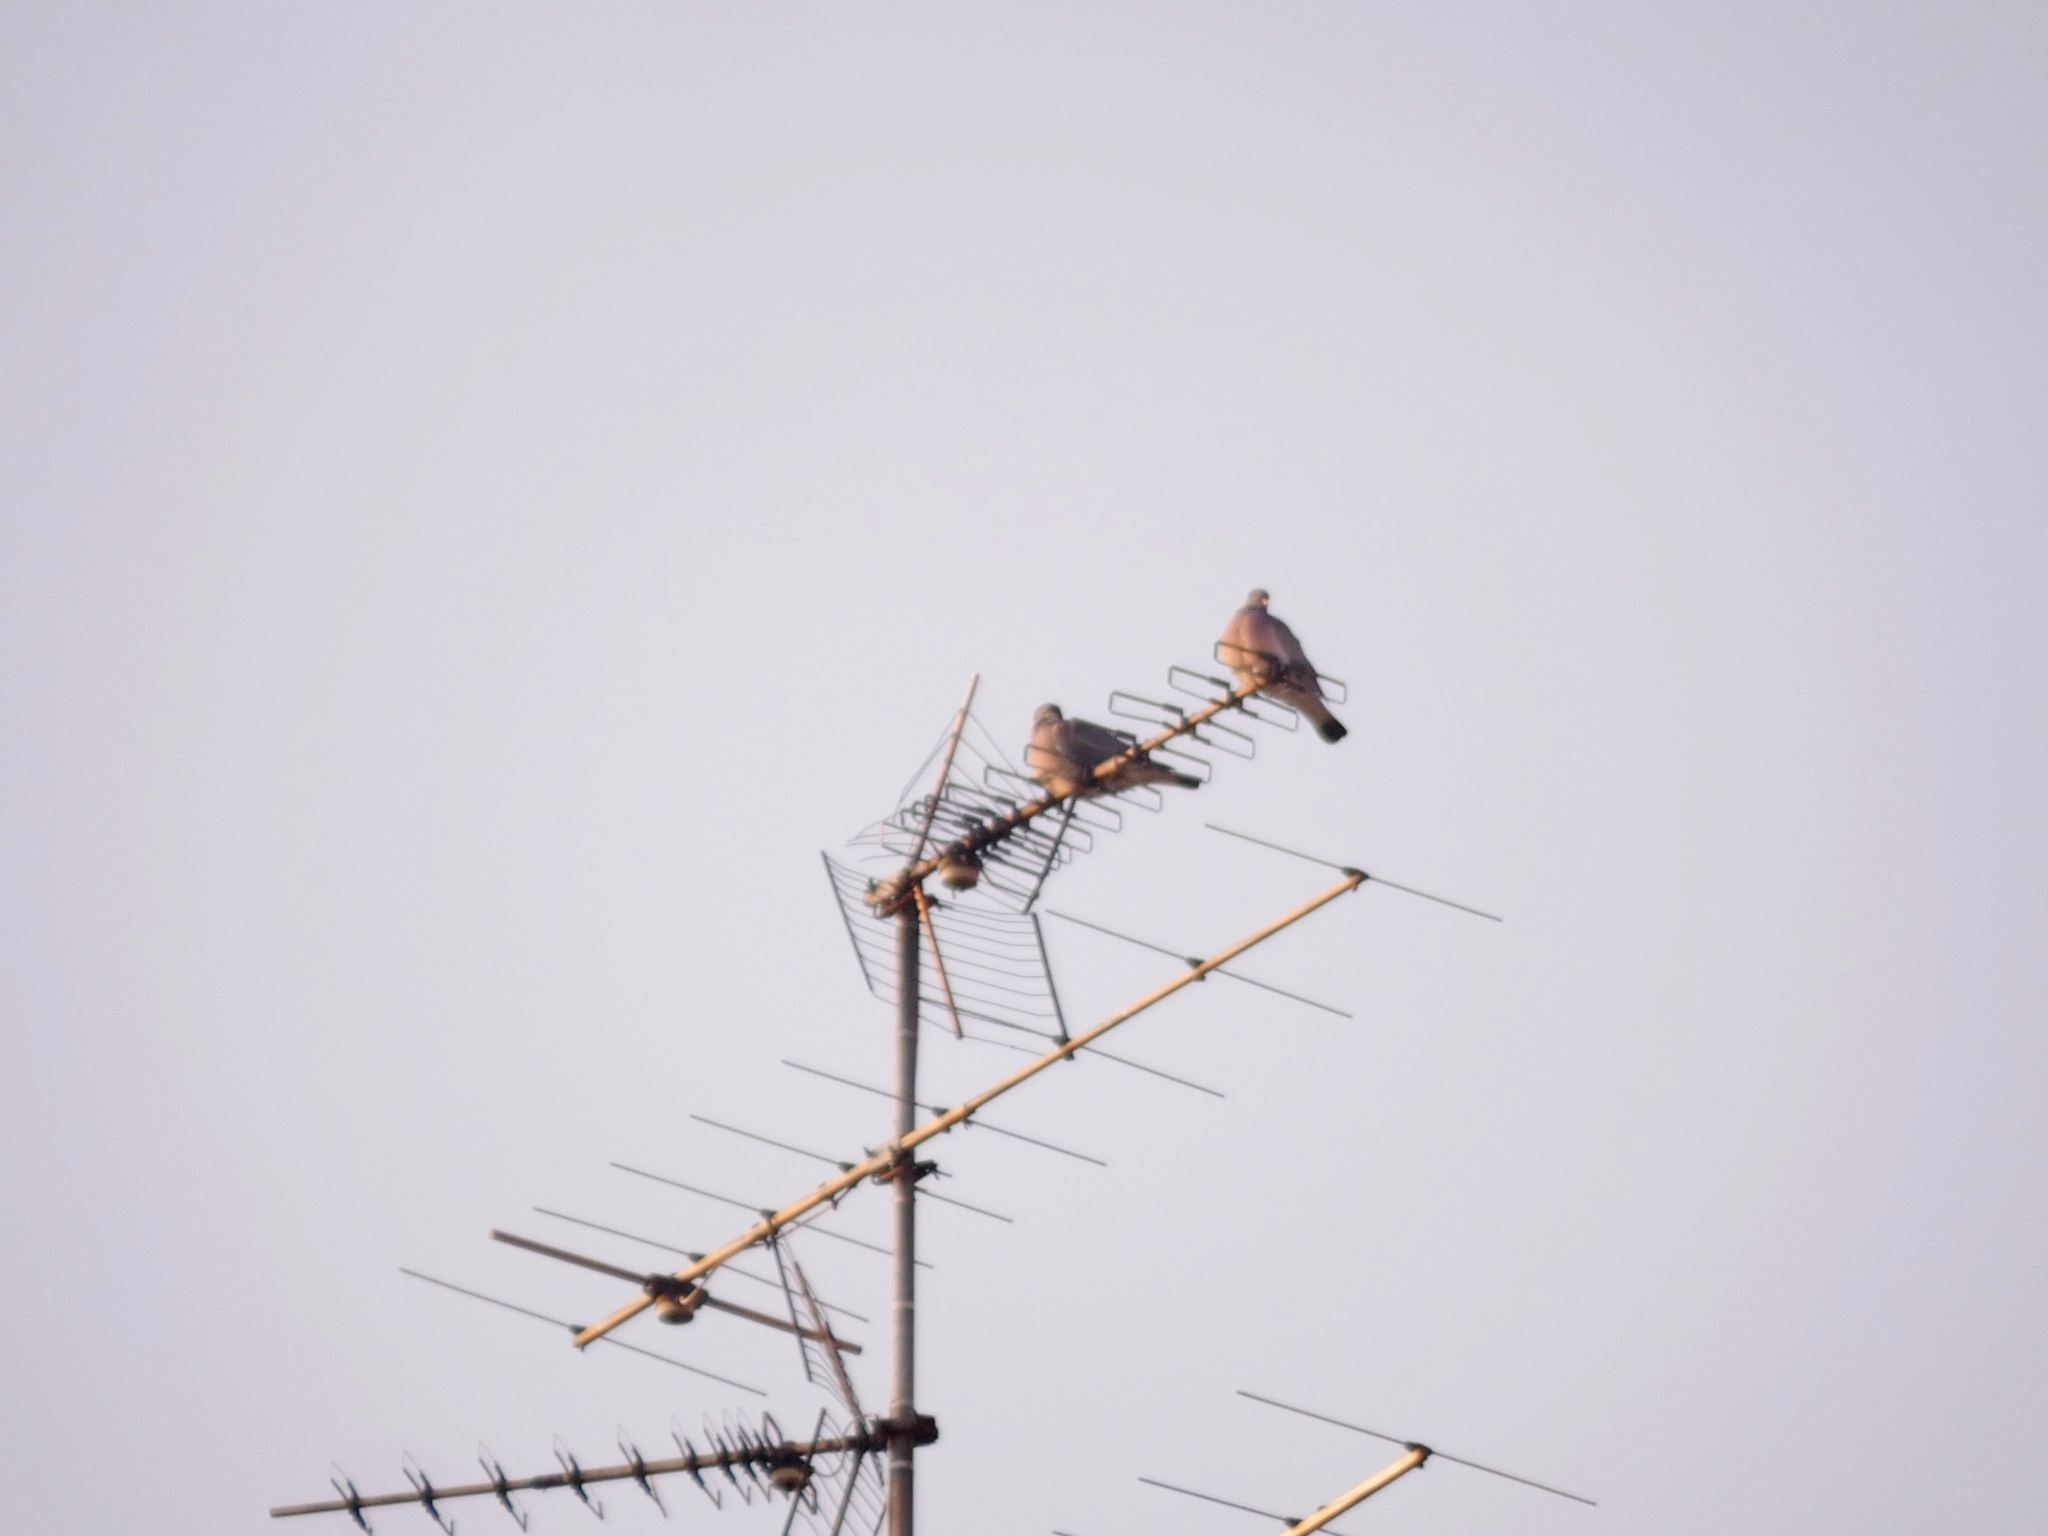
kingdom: Animalia
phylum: Chordata
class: Aves
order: Columbiformes
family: Columbidae
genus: Columba
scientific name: Columba palumbus
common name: Common wood pigeon
